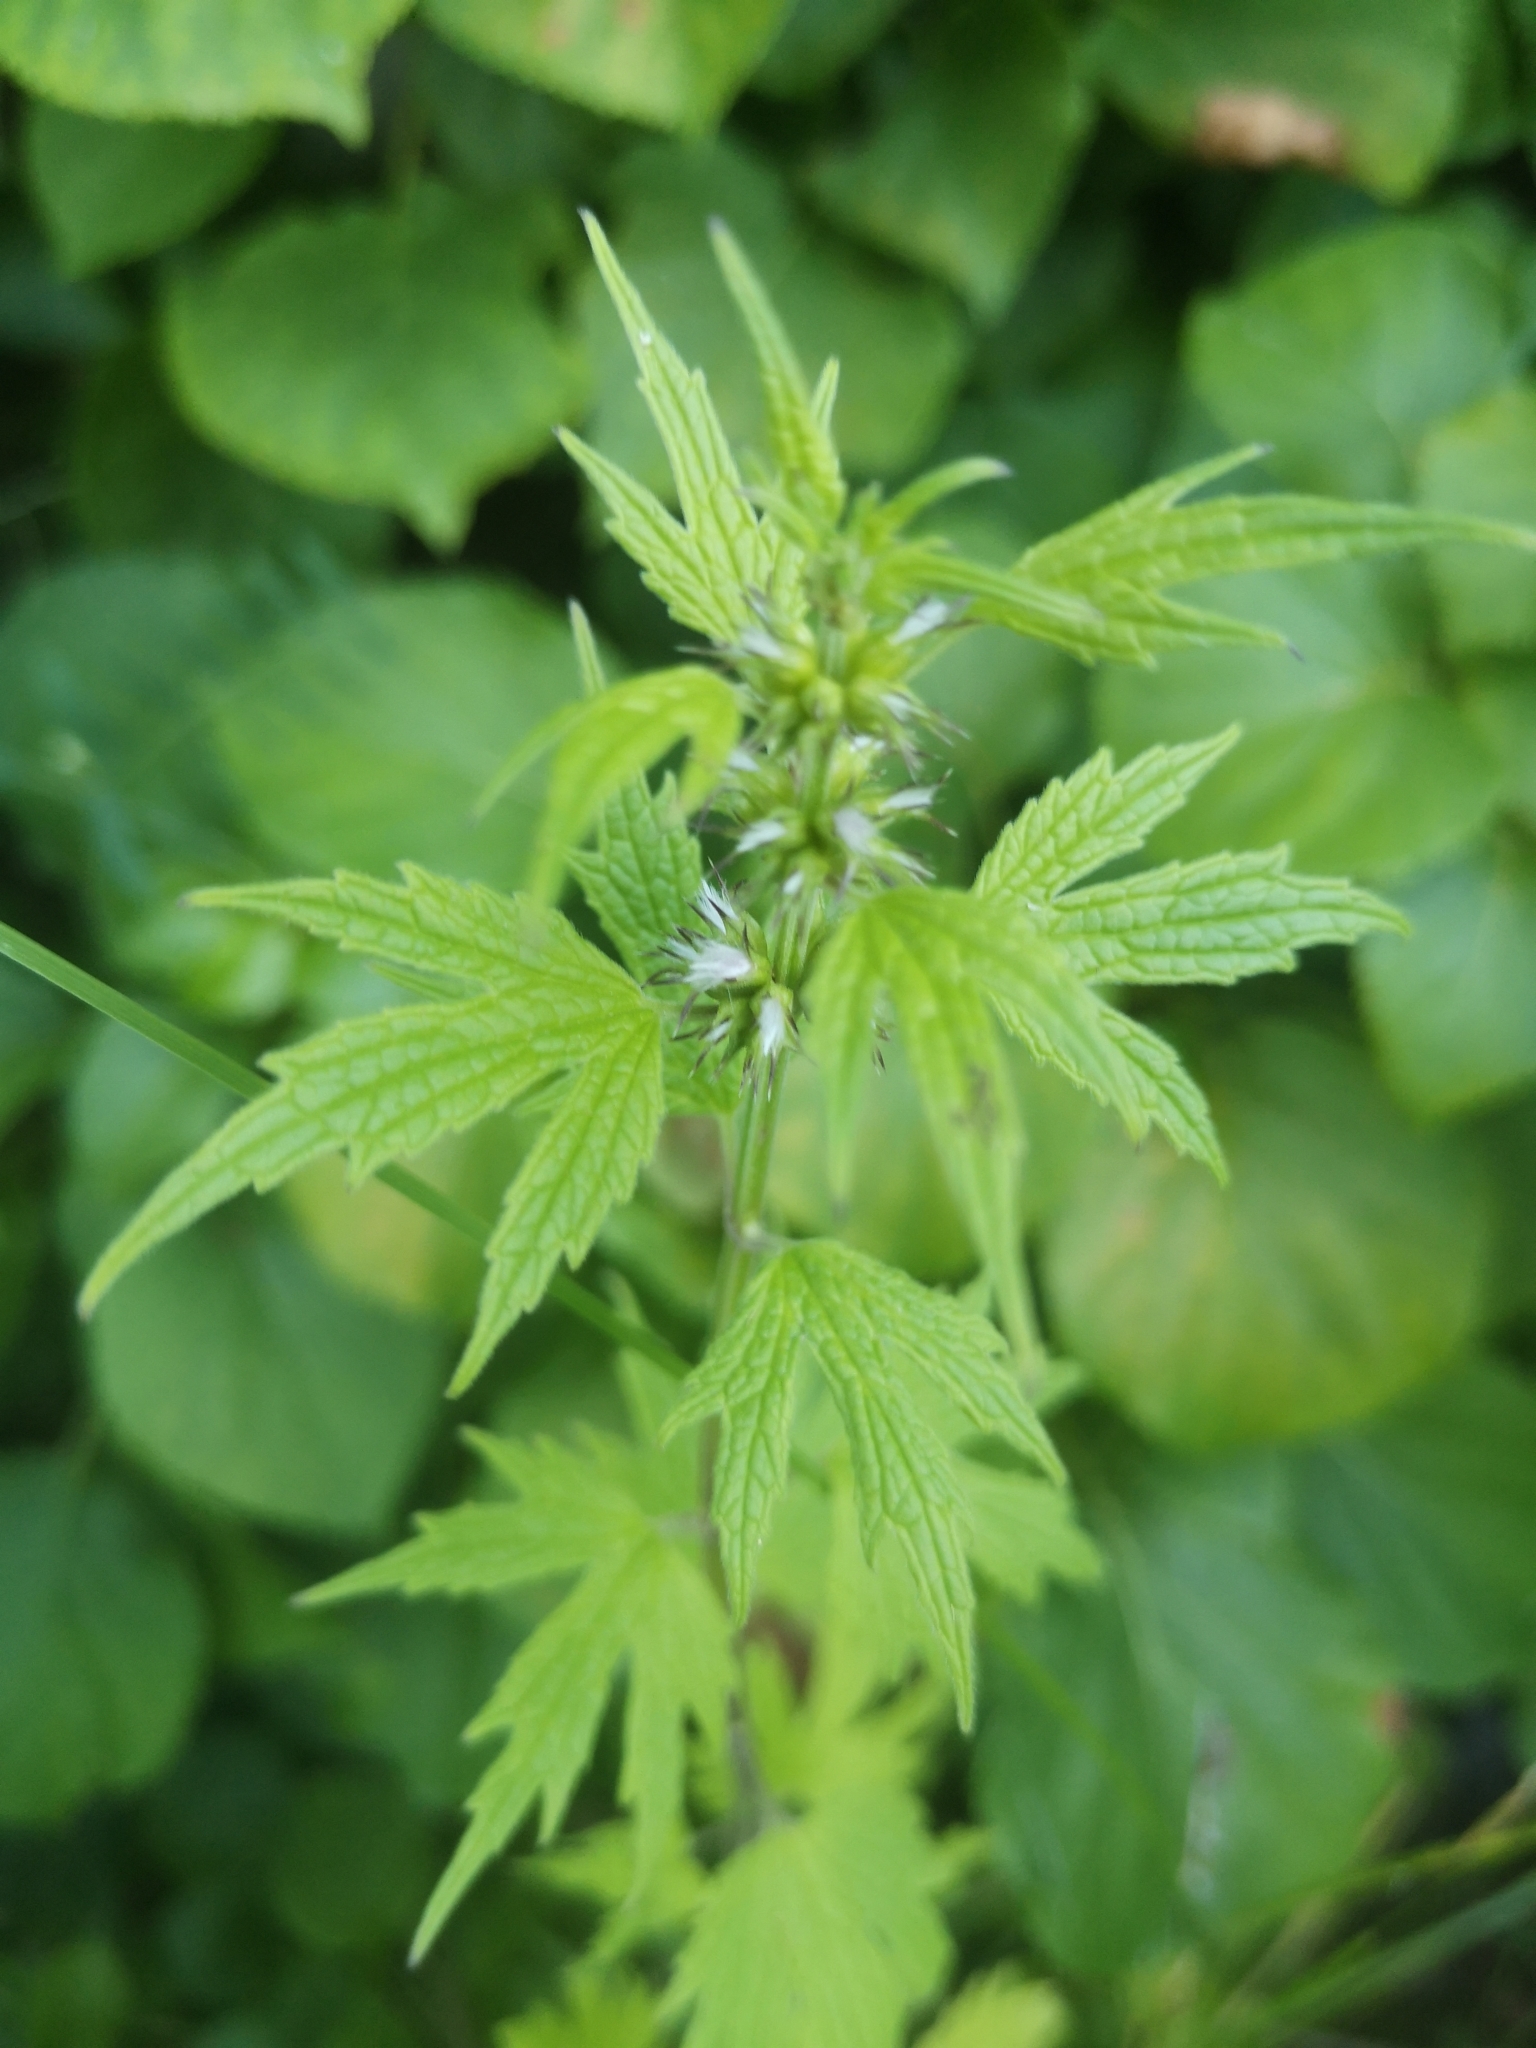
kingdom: Plantae
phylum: Tracheophyta
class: Magnoliopsida
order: Lamiales
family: Lamiaceae
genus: Leonurus
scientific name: Leonurus cardiaca
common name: Motherwort
